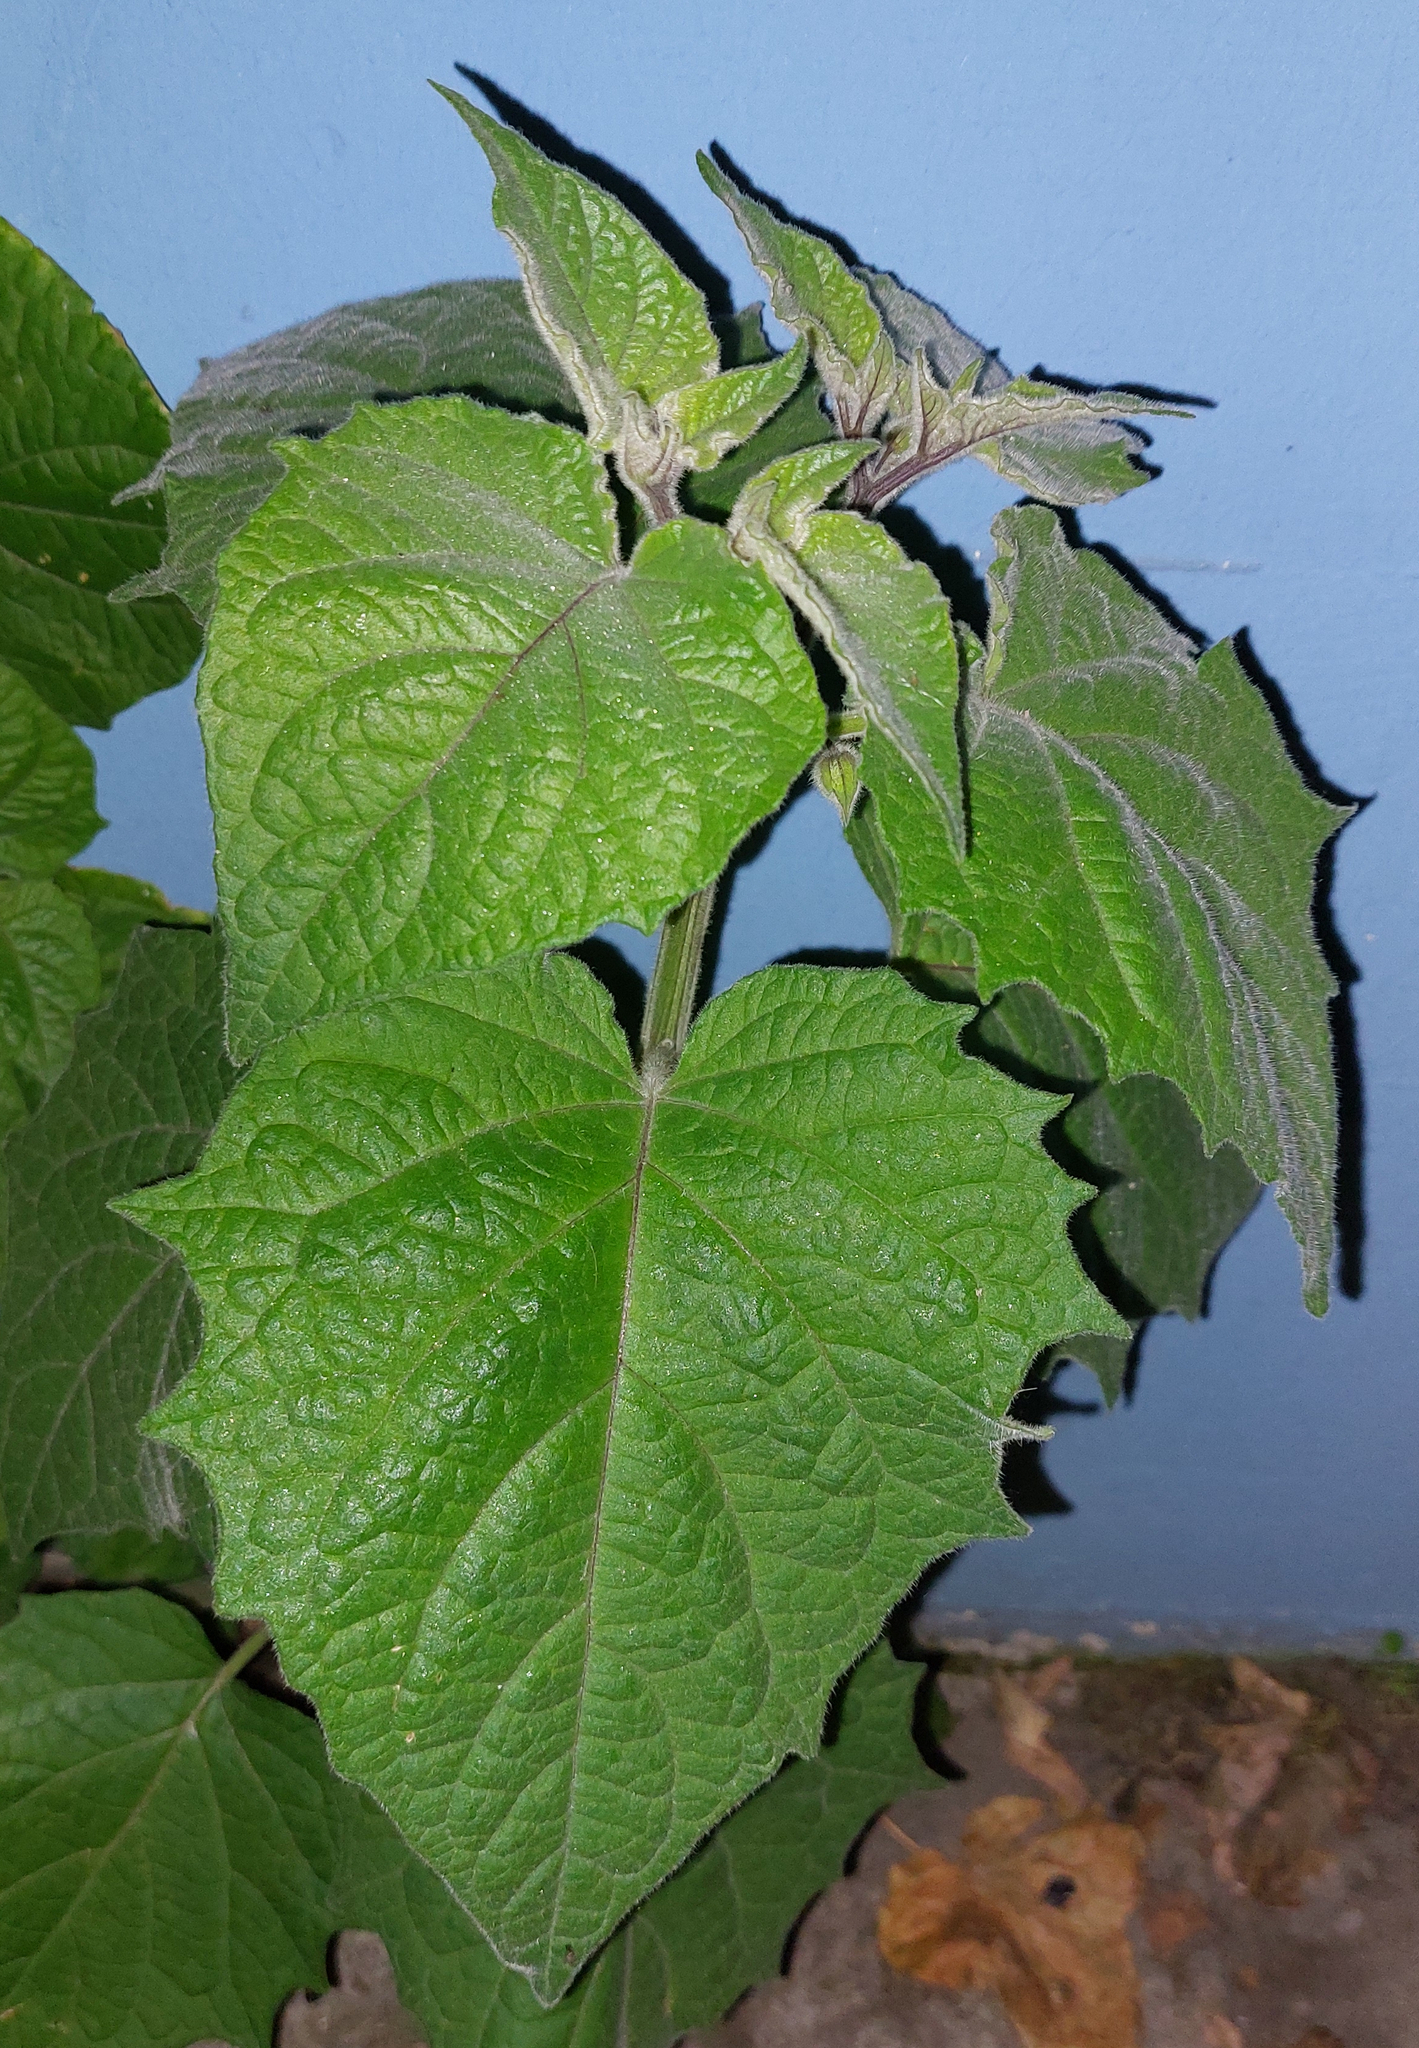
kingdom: Plantae
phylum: Tracheophyta
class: Magnoliopsida
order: Solanales
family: Solanaceae
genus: Physalis
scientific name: Physalis peruviana
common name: Cape-gooseberry
